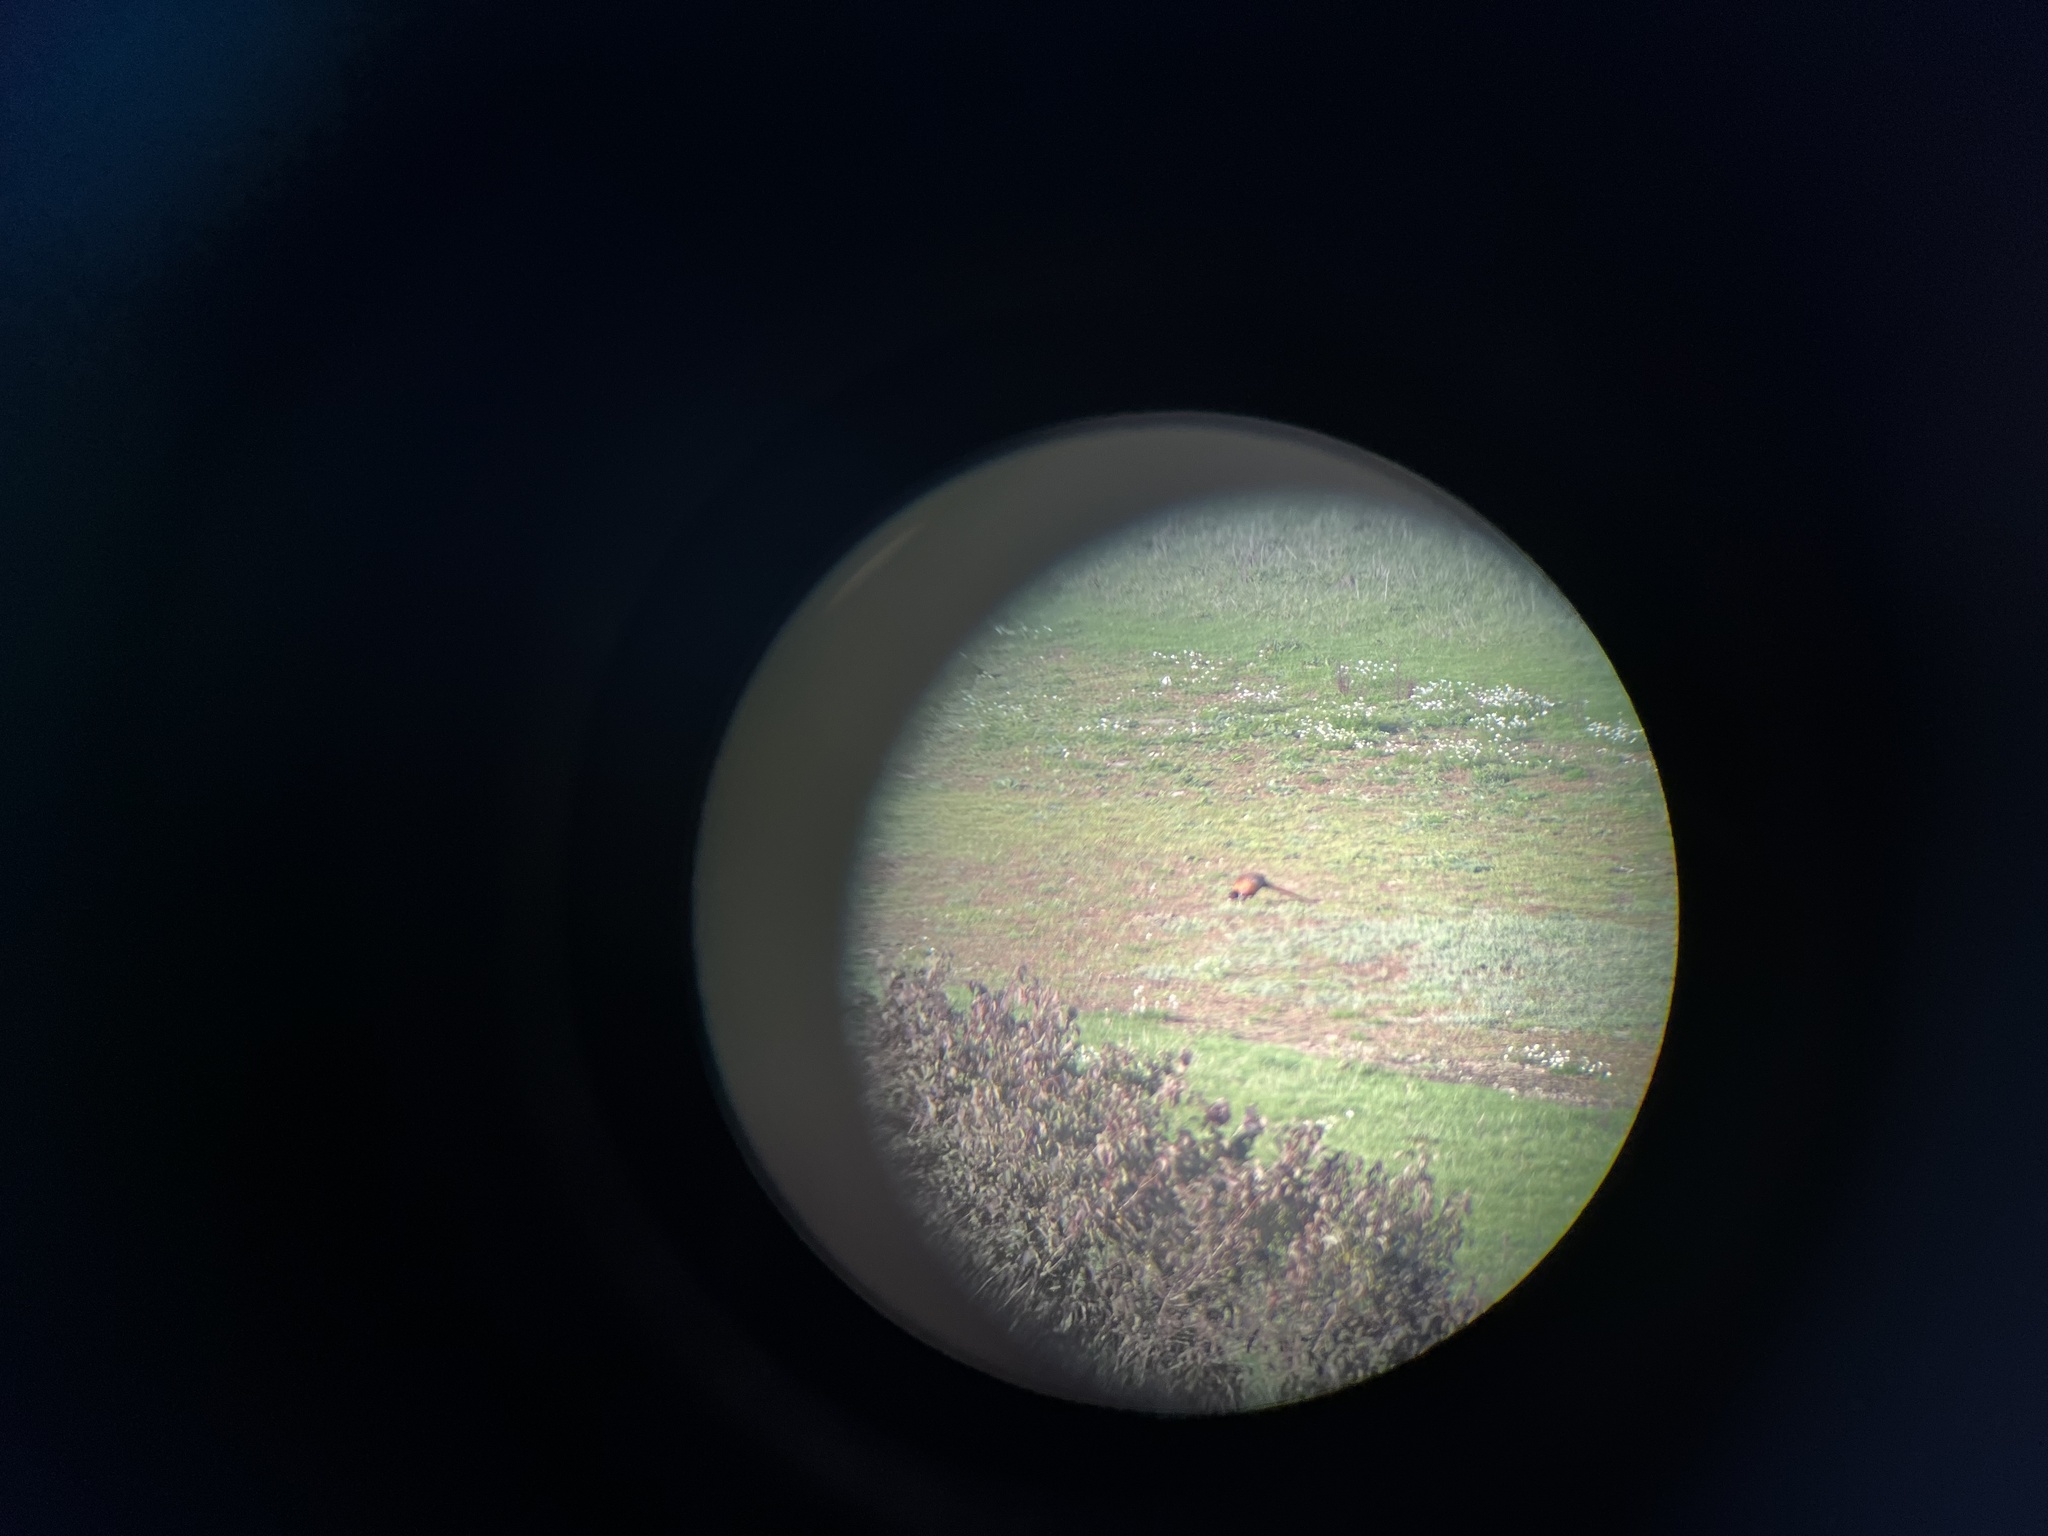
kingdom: Animalia
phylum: Chordata
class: Aves
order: Galliformes
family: Phasianidae
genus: Phasianus
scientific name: Phasianus colchicus
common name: Common pheasant
